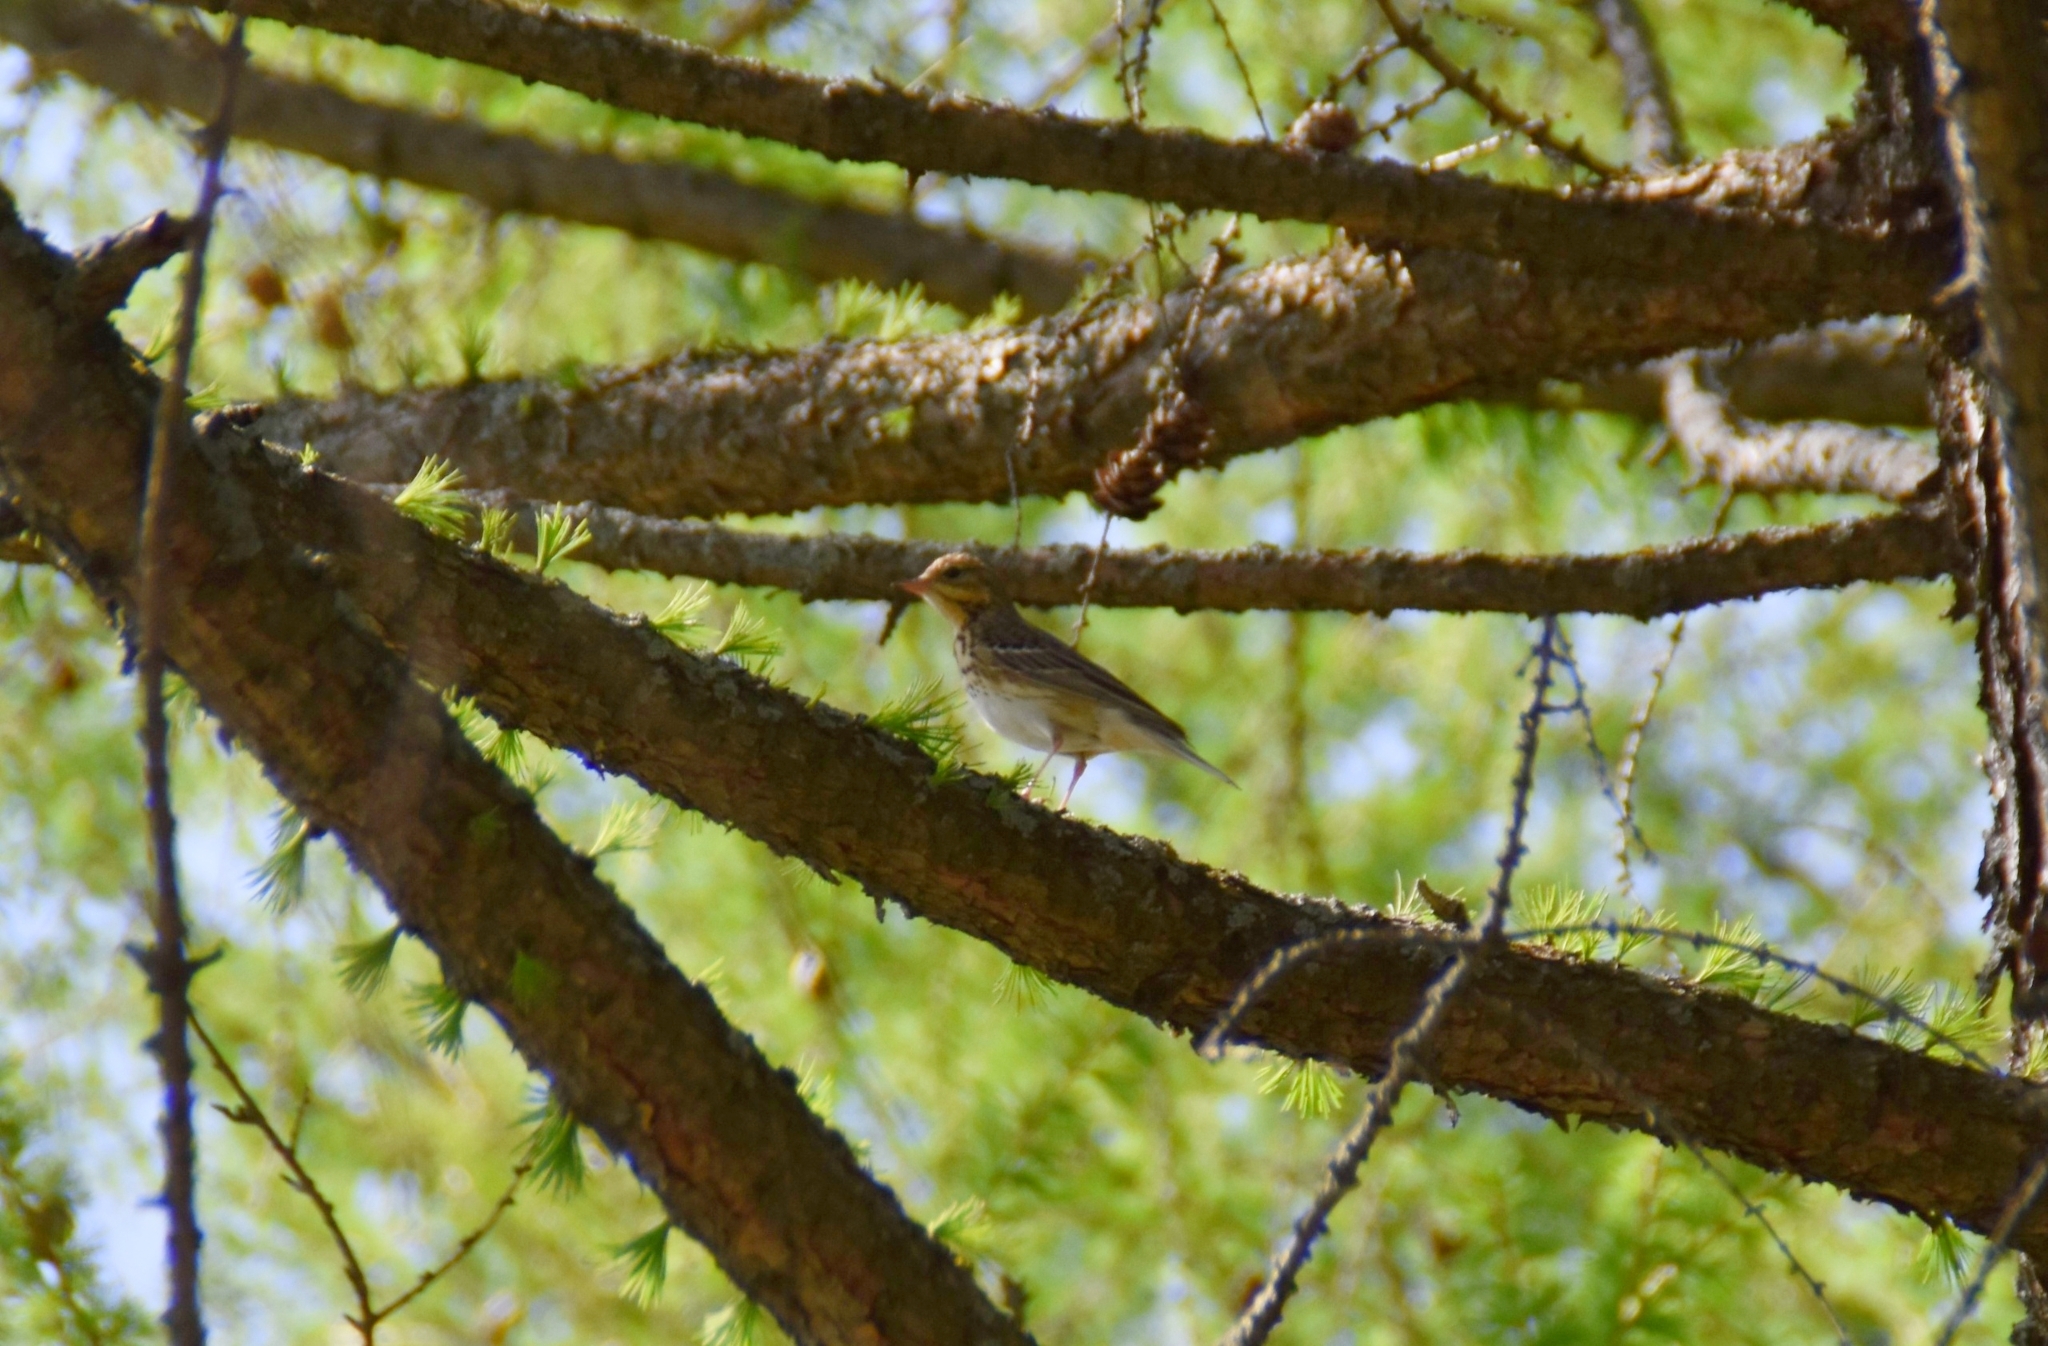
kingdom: Animalia
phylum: Chordata
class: Aves
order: Passeriformes
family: Motacillidae
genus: Anthus
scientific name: Anthus trivialis
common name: Tree pipit
